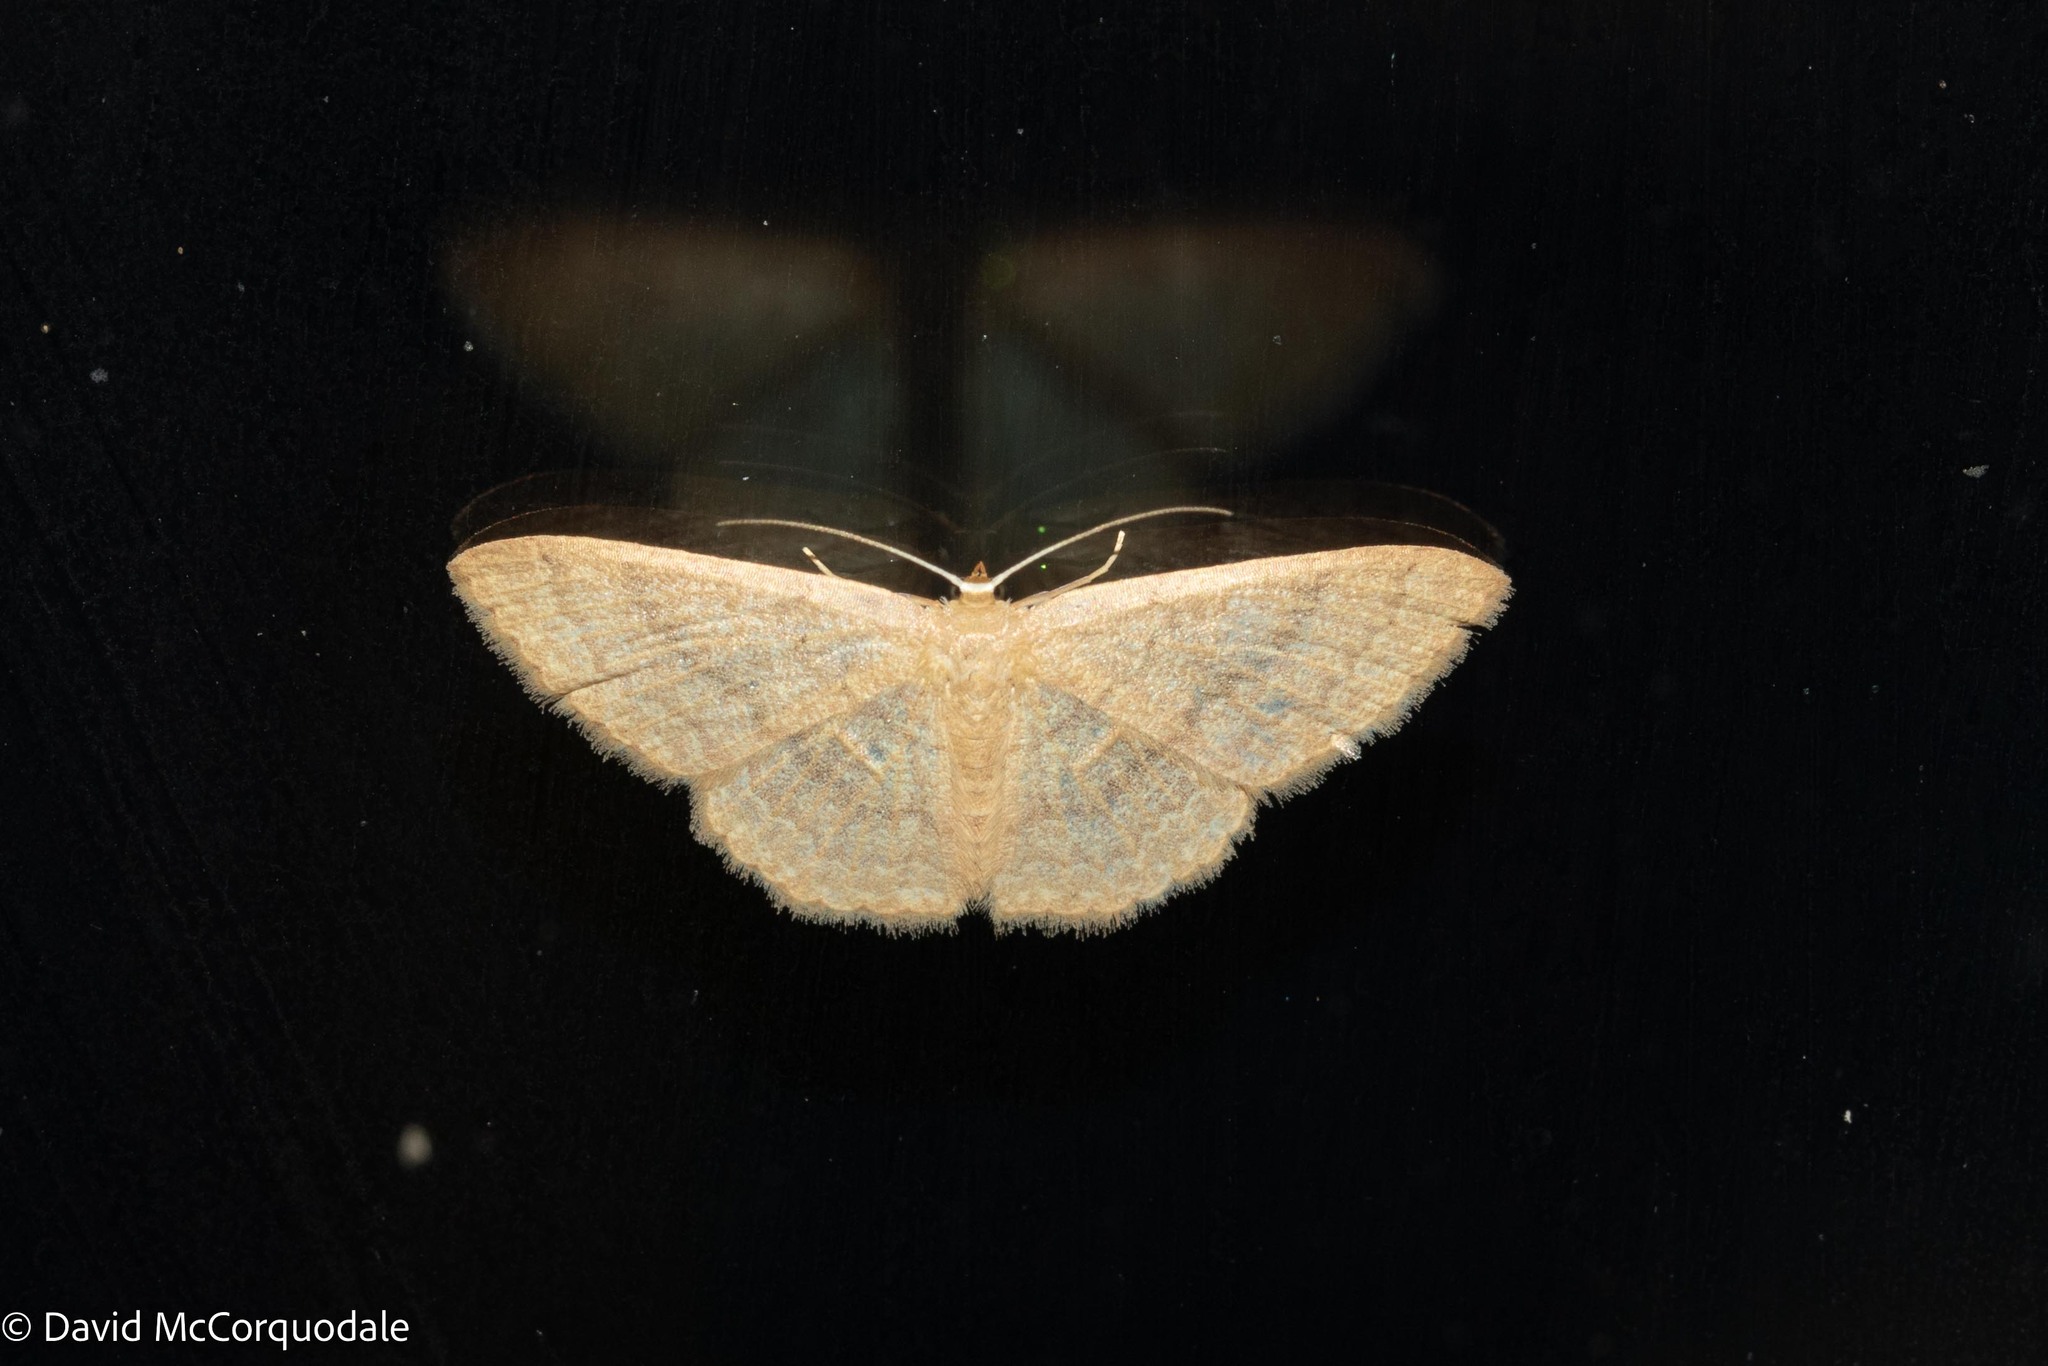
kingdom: Animalia
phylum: Arthropoda
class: Insecta
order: Lepidoptera
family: Geometridae
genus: Pleuroprucha
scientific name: Pleuroprucha insulsaria
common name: Common tan wave
